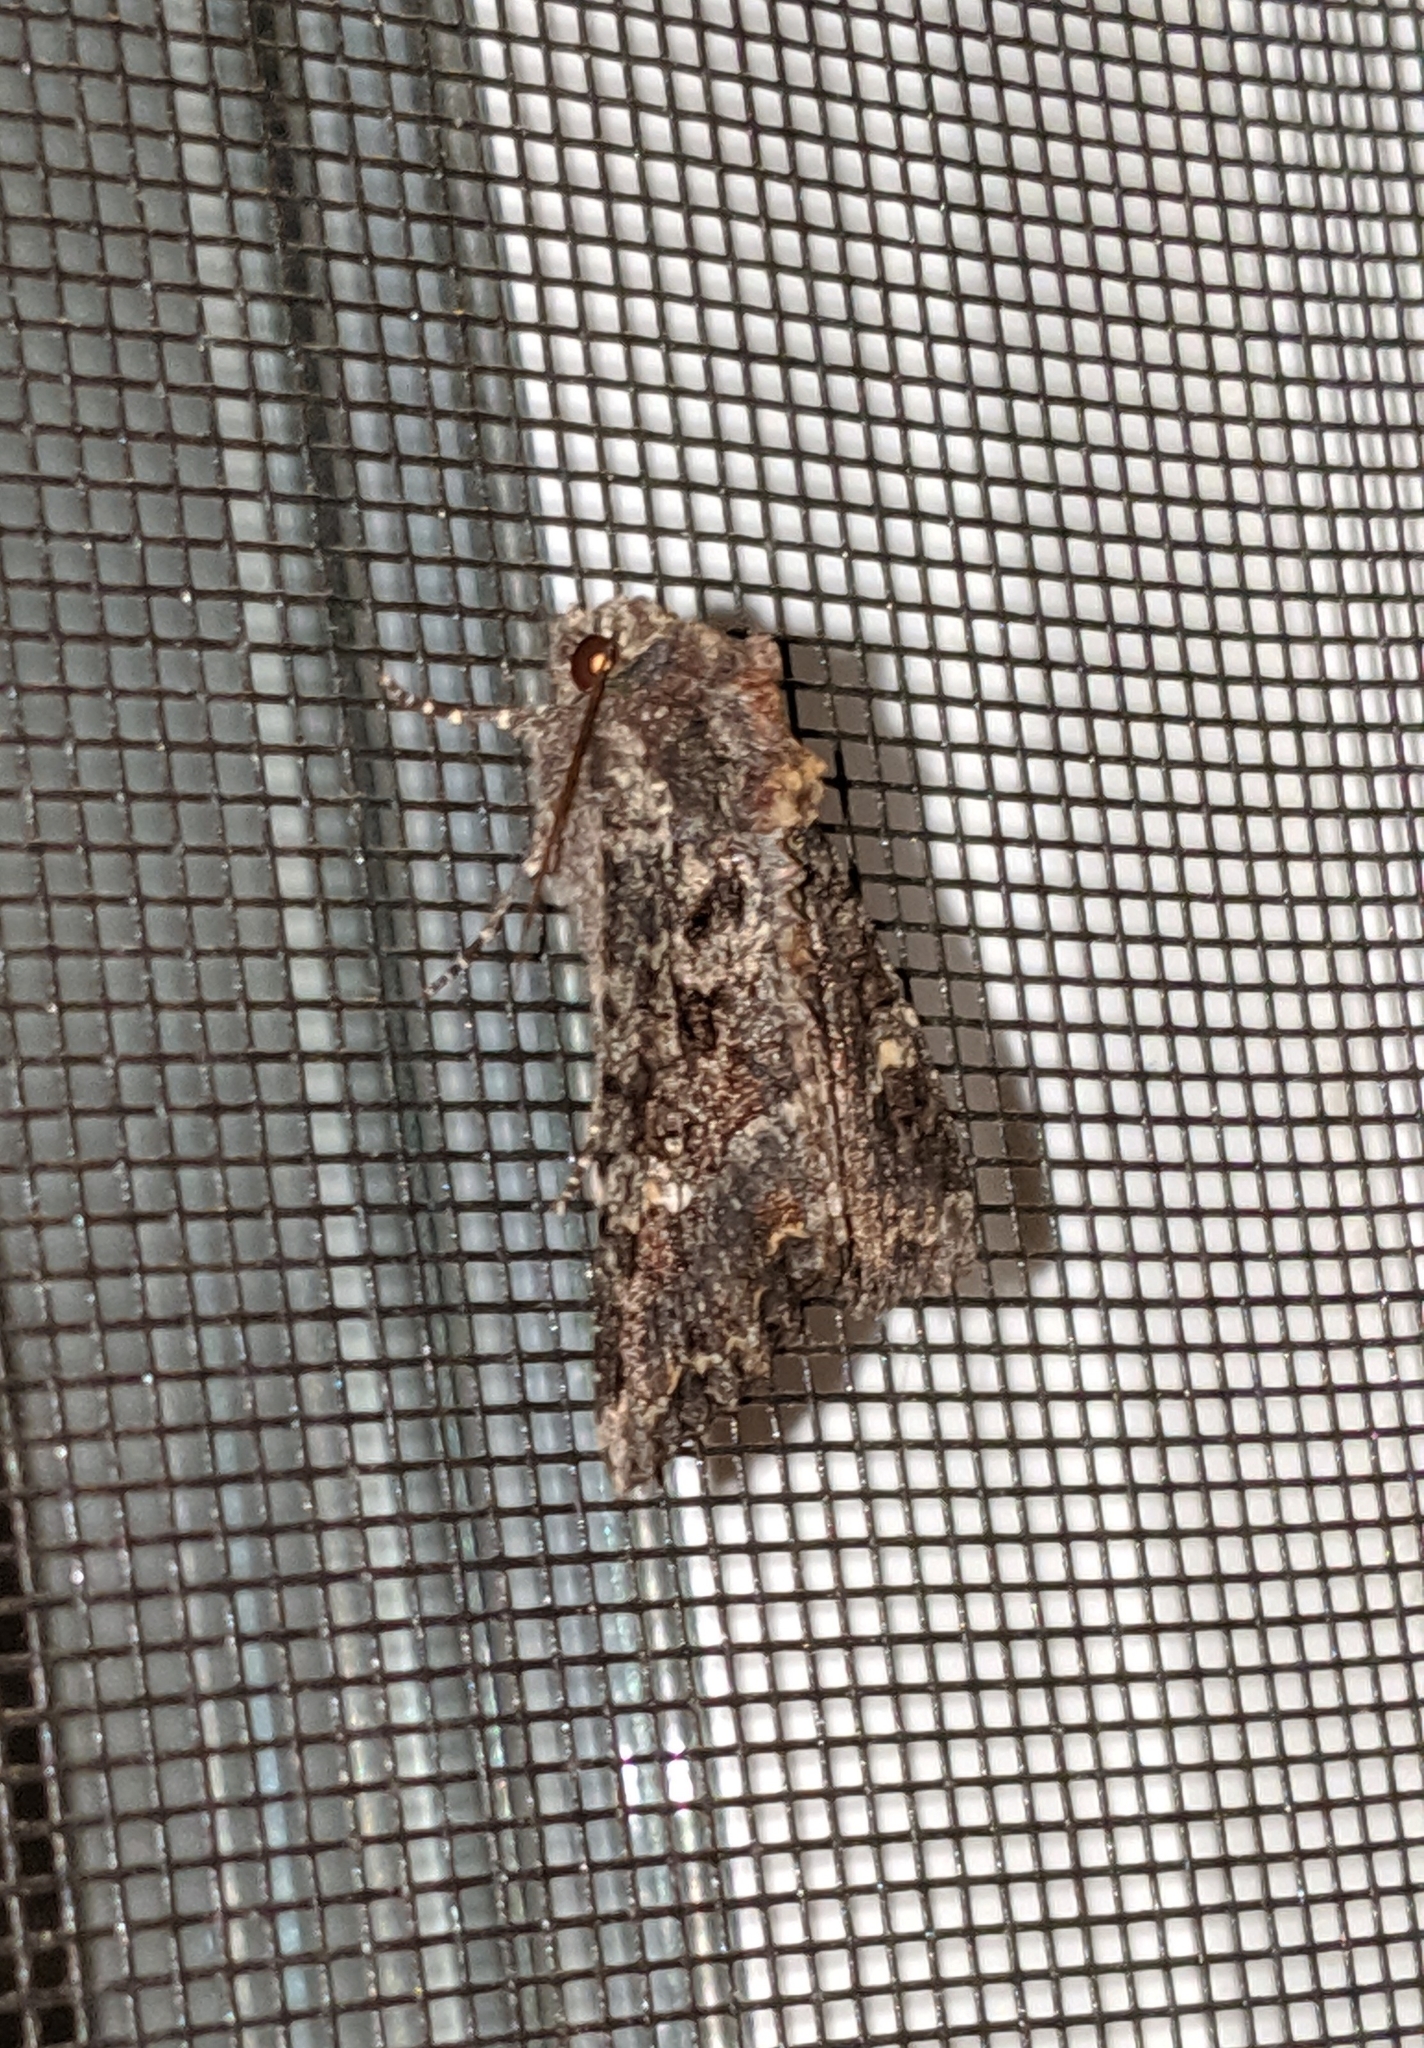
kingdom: Animalia
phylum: Arthropoda
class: Insecta
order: Lepidoptera
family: Noctuidae
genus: Apamea
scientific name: Apamea amputatrix
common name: Yellow-headed cutworm moth
